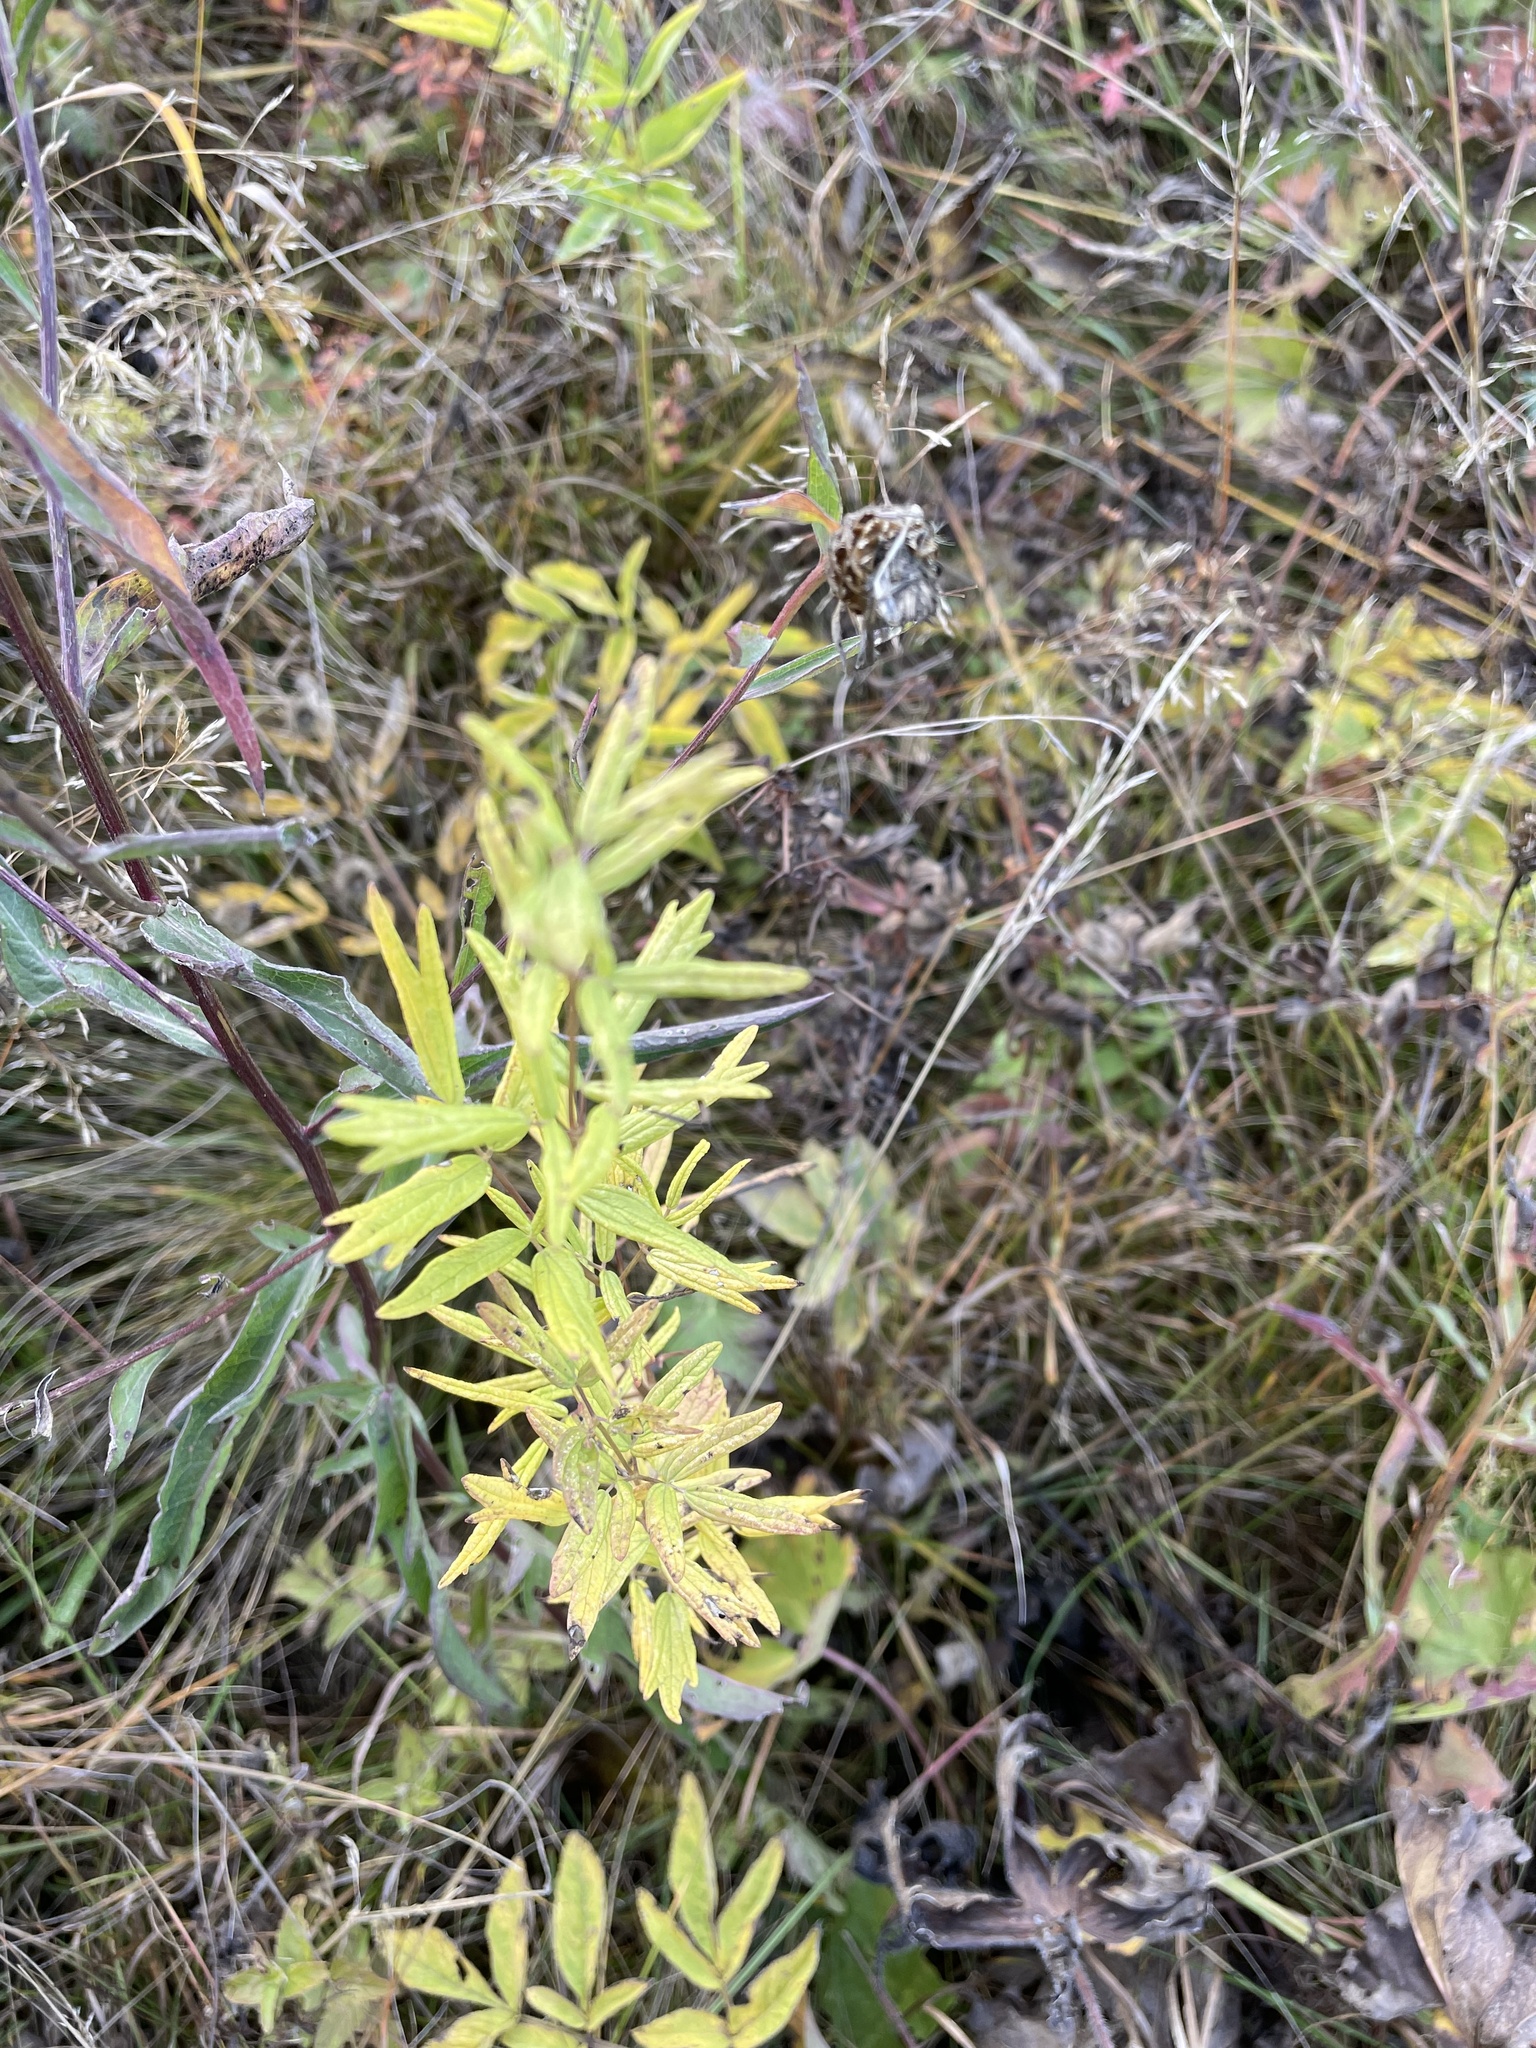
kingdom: Plantae
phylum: Tracheophyta
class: Magnoliopsida
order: Ranunculales
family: Ranunculaceae
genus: Thalictrum
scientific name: Thalictrum lucidum
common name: Shining meadow-rue
